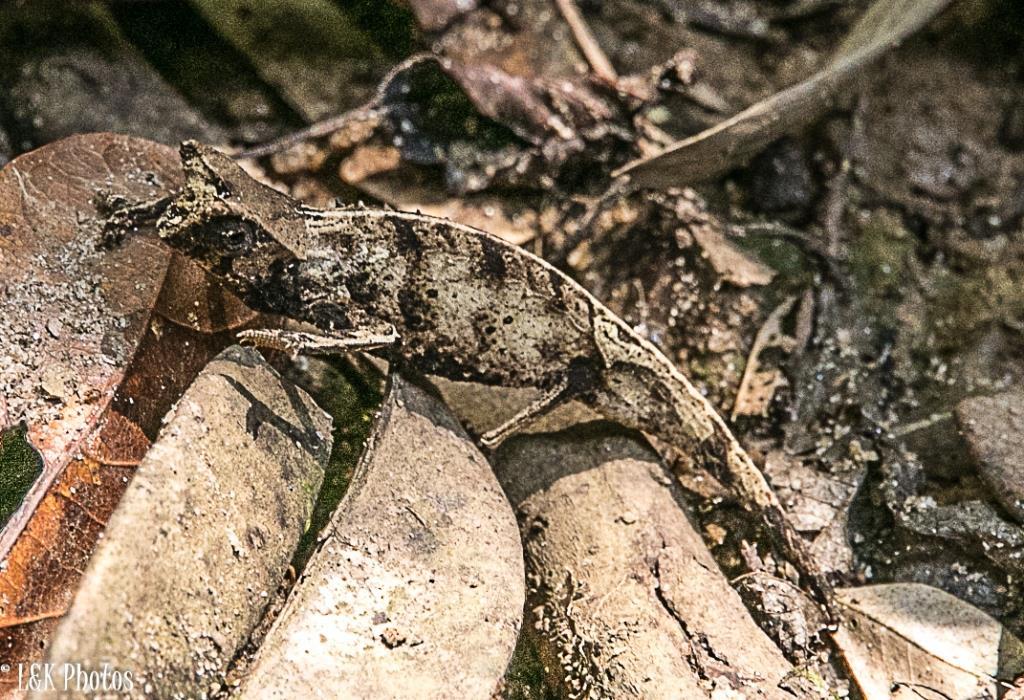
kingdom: Animalia
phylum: Chordata
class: Squamata
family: Chamaeleonidae
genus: Brookesia
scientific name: Brookesia therezieni
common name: Perinet leaf chameleon
